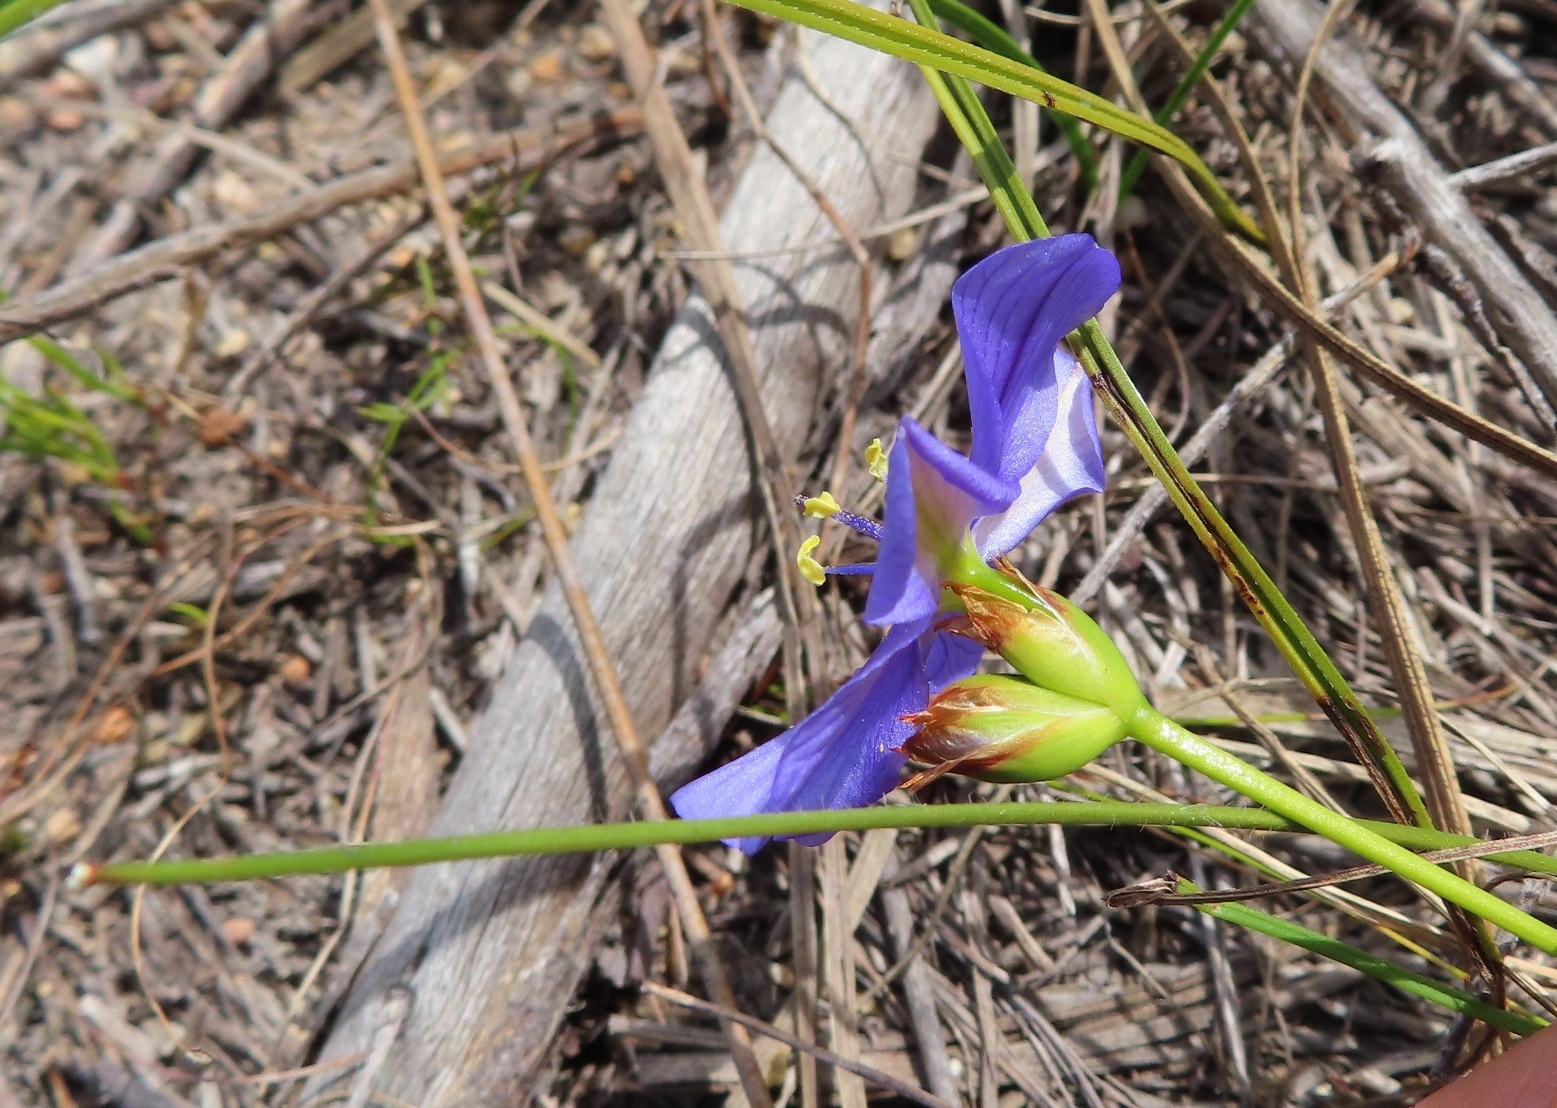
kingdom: Plantae
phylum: Tracheophyta
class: Liliopsida
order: Asparagales
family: Iridaceae
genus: Aristea
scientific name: Aristea juncifolia
